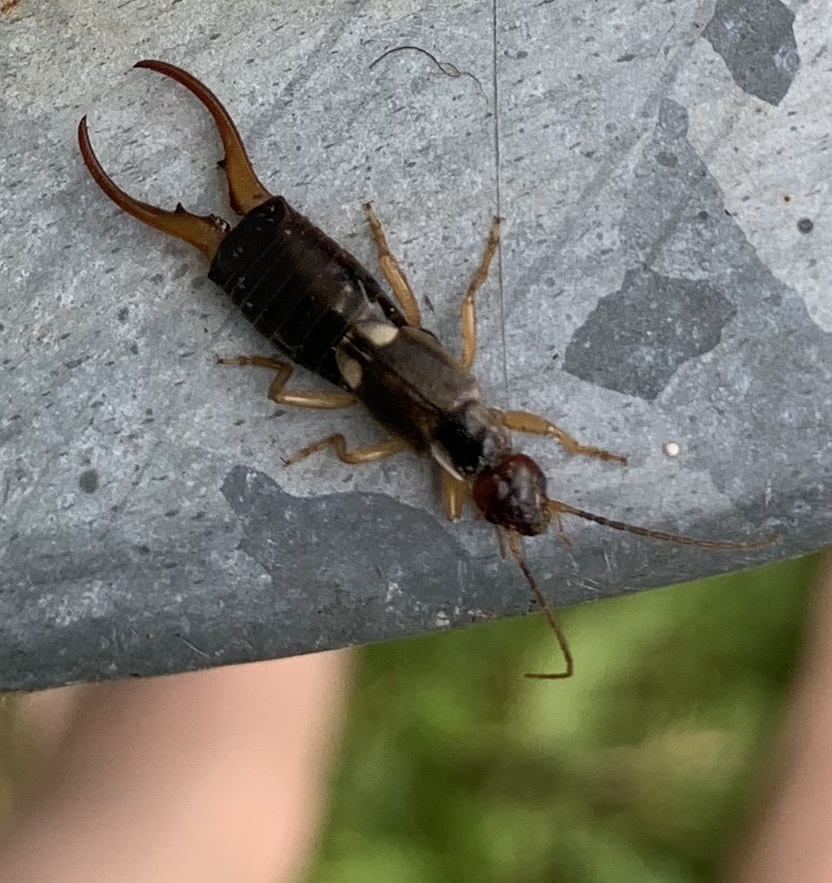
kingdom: Animalia
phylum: Arthropoda
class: Insecta
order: Dermaptera
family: Forficulidae
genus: Forficula
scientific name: Forficula
